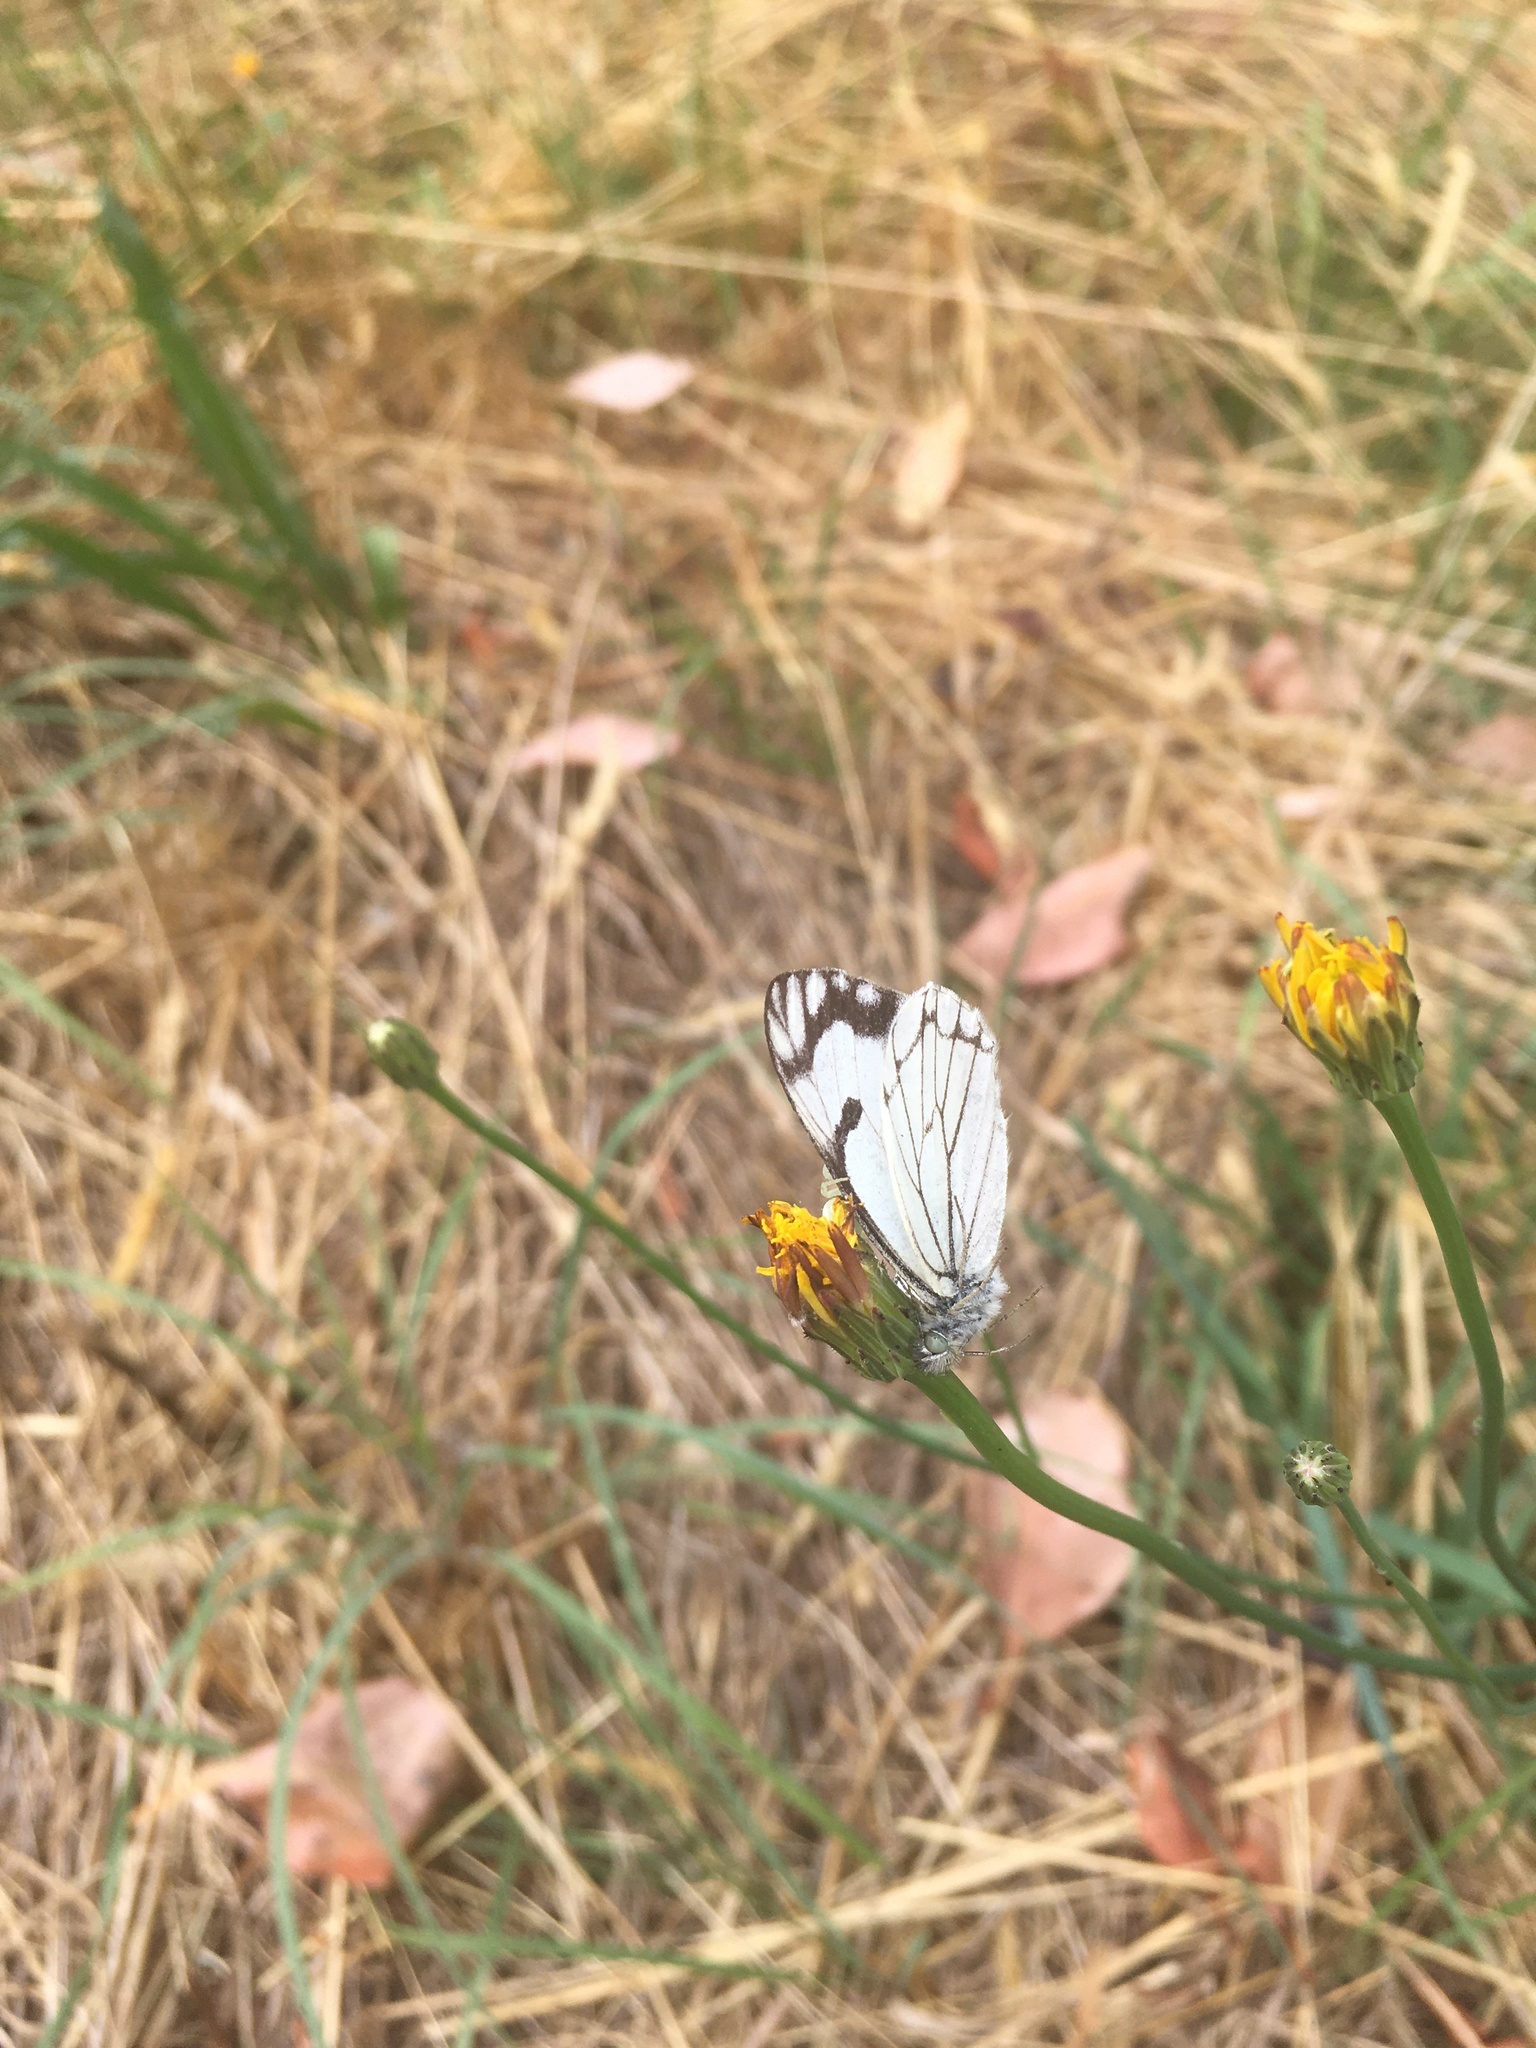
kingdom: Animalia
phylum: Arthropoda
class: Insecta
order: Lepidoptera
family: Pieridae
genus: Neophasia
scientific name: Neophasia menapia
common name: Pine white
